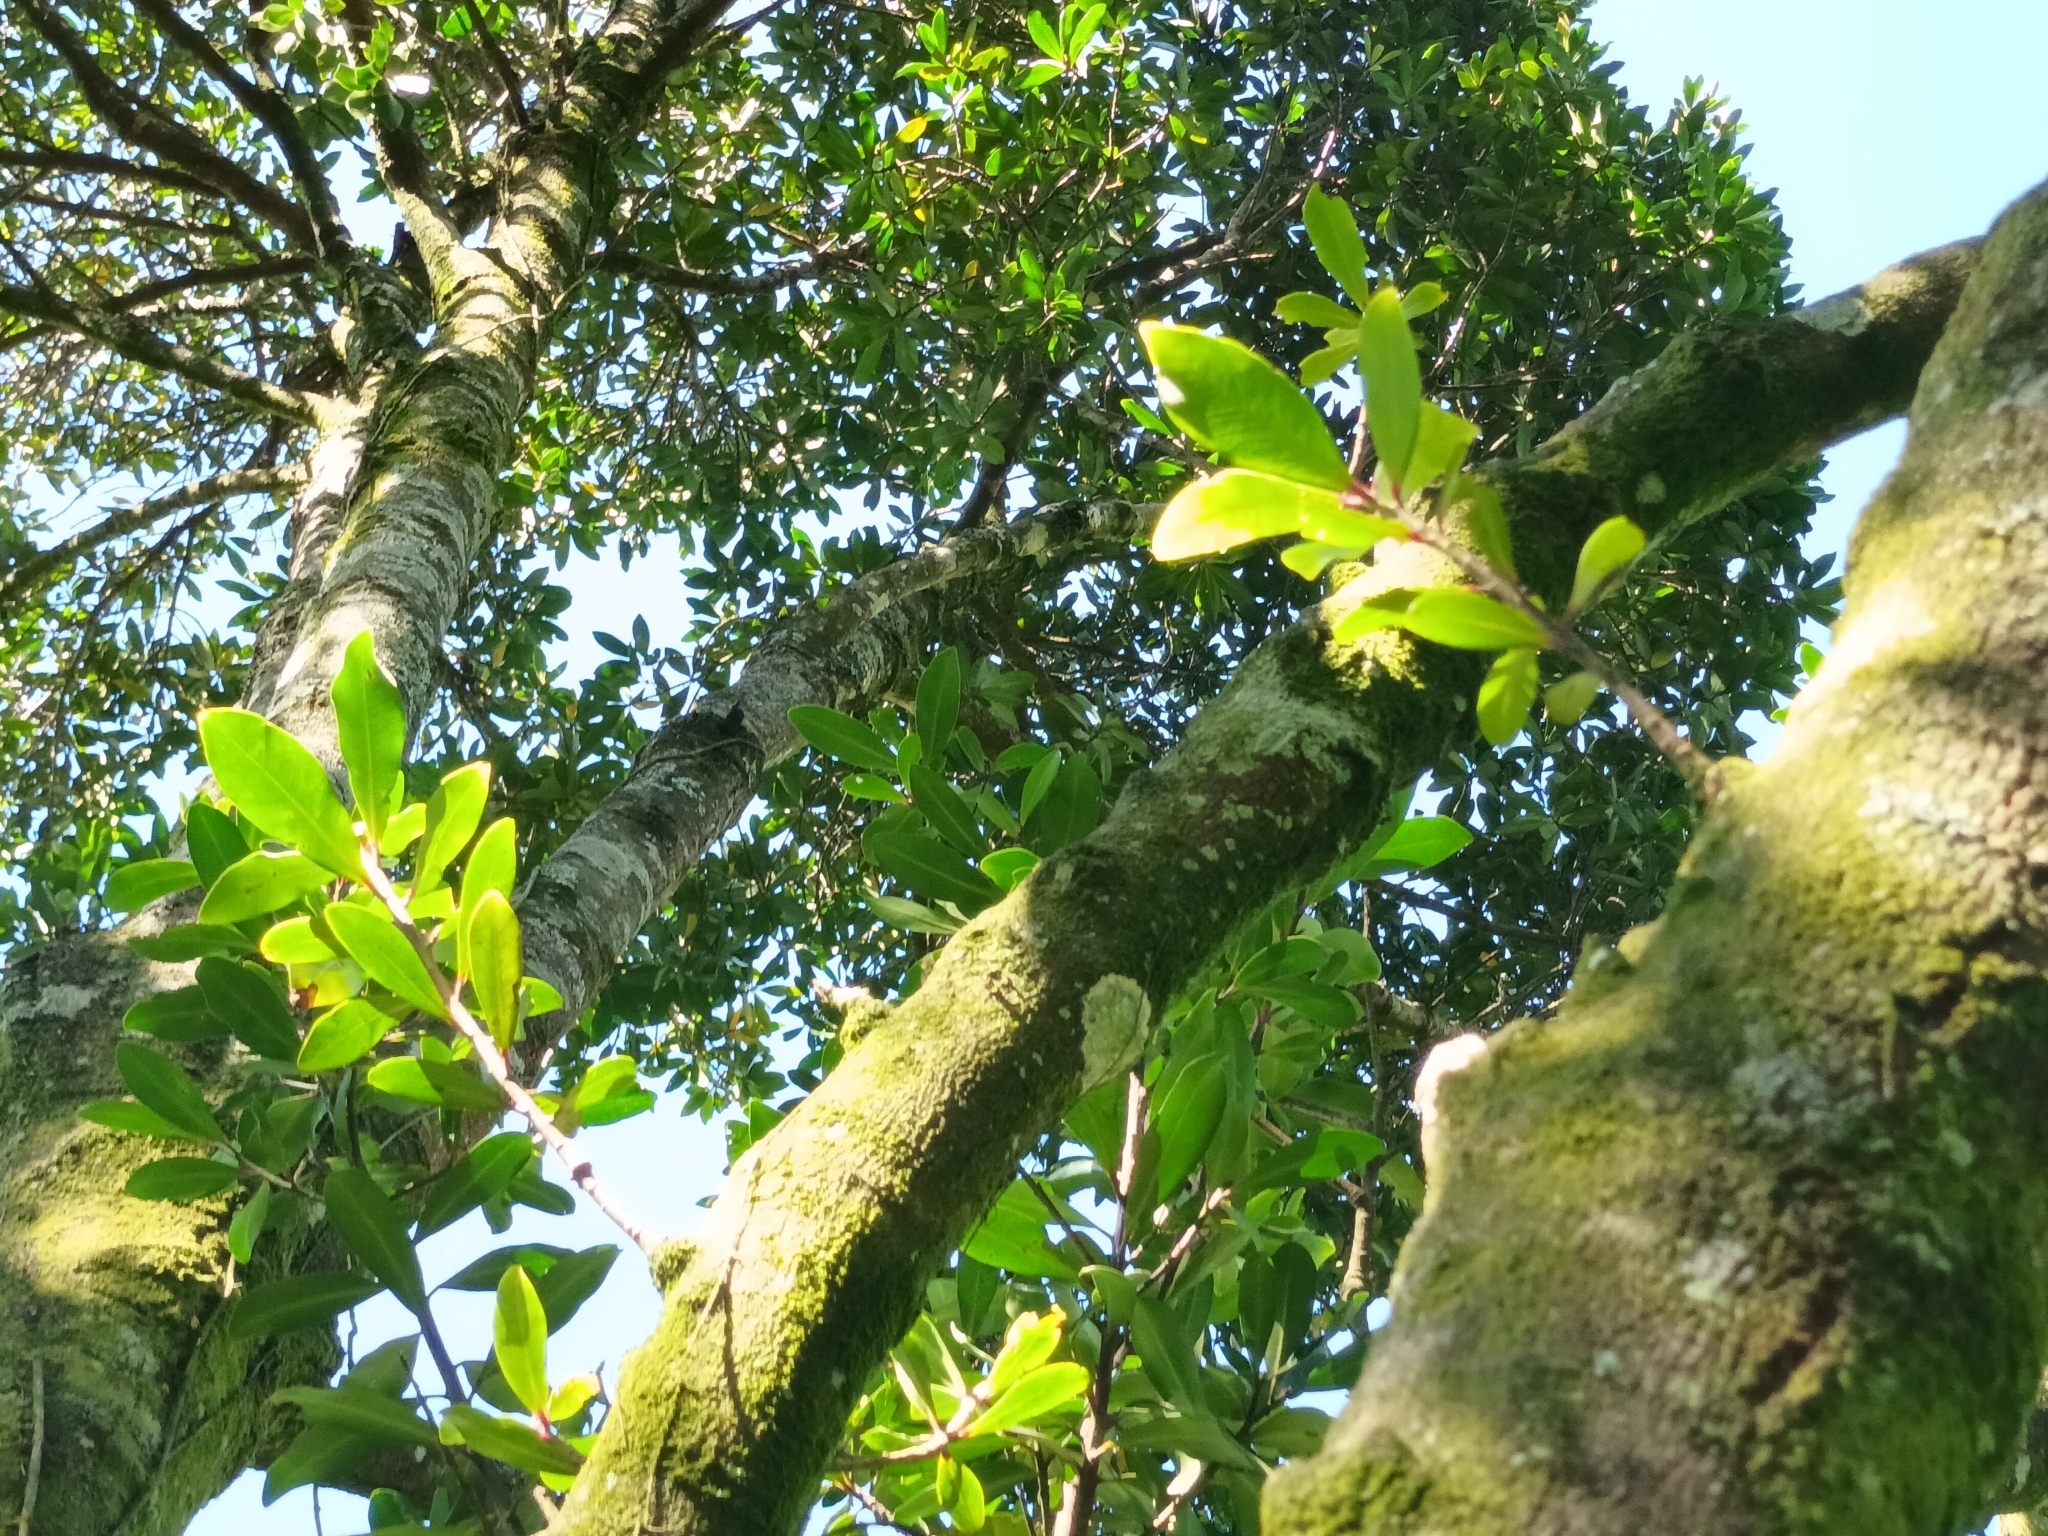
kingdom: Plantae
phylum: Tracheophyta
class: Magnoliopsida
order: Ericales
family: Primulaceae
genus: Myrsine
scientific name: Myrsine melanophloeos
